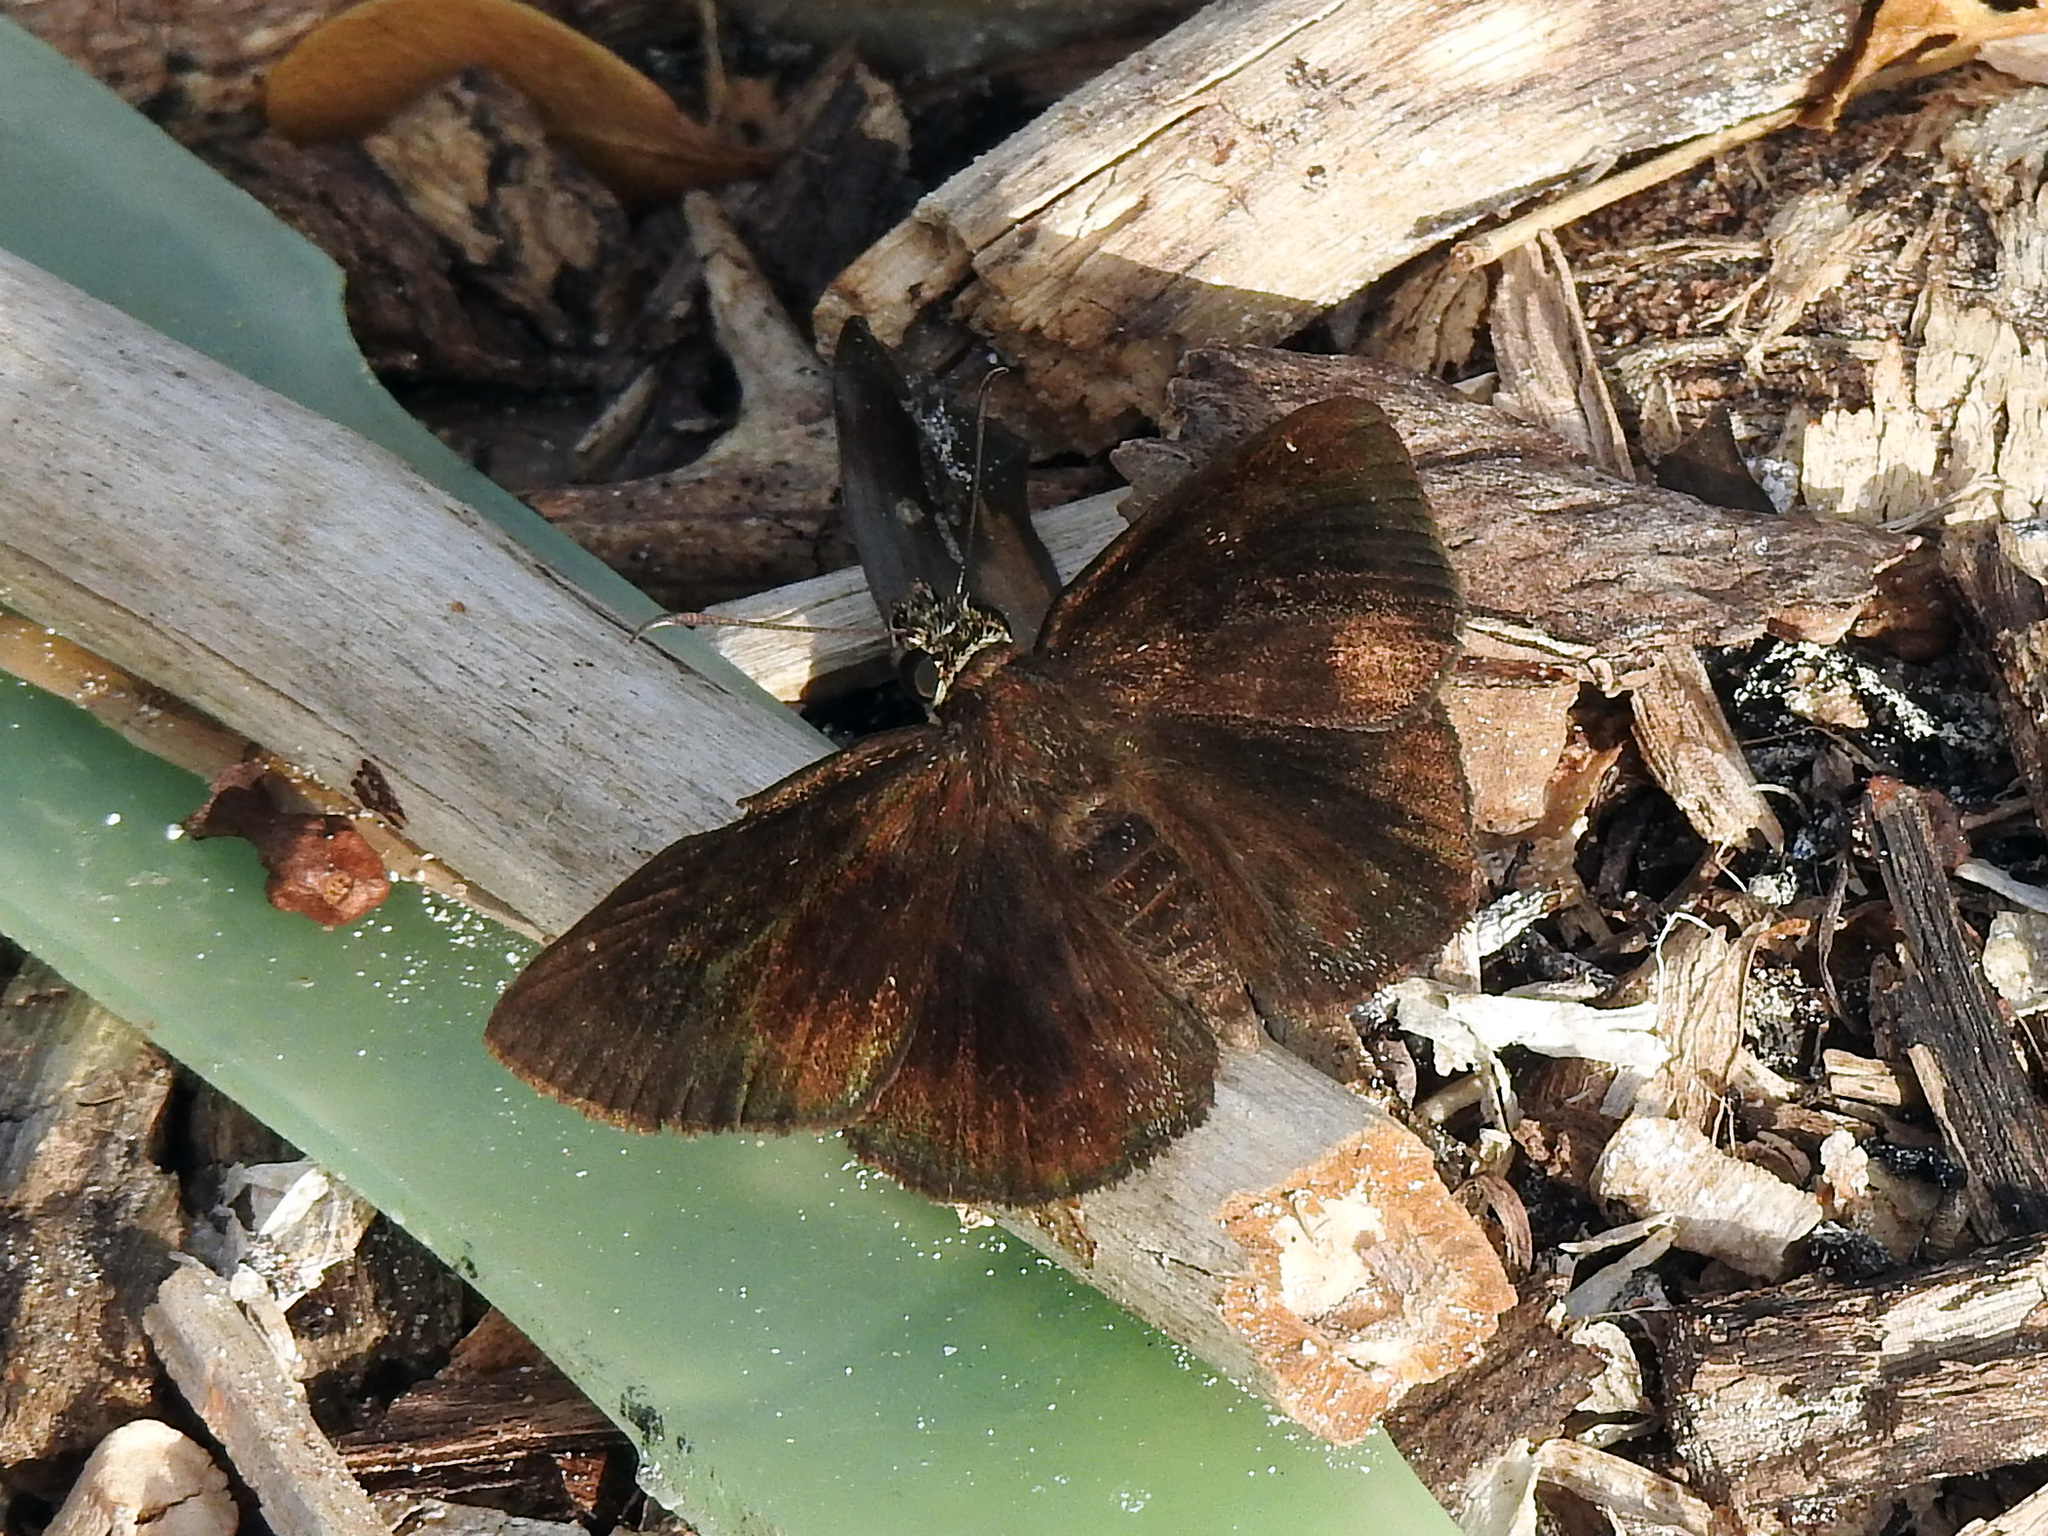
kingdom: Animalia
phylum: Arthropoda
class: Insecta
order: Lepidoptera
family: Hesperiidae
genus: Burca
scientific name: Burca braco
